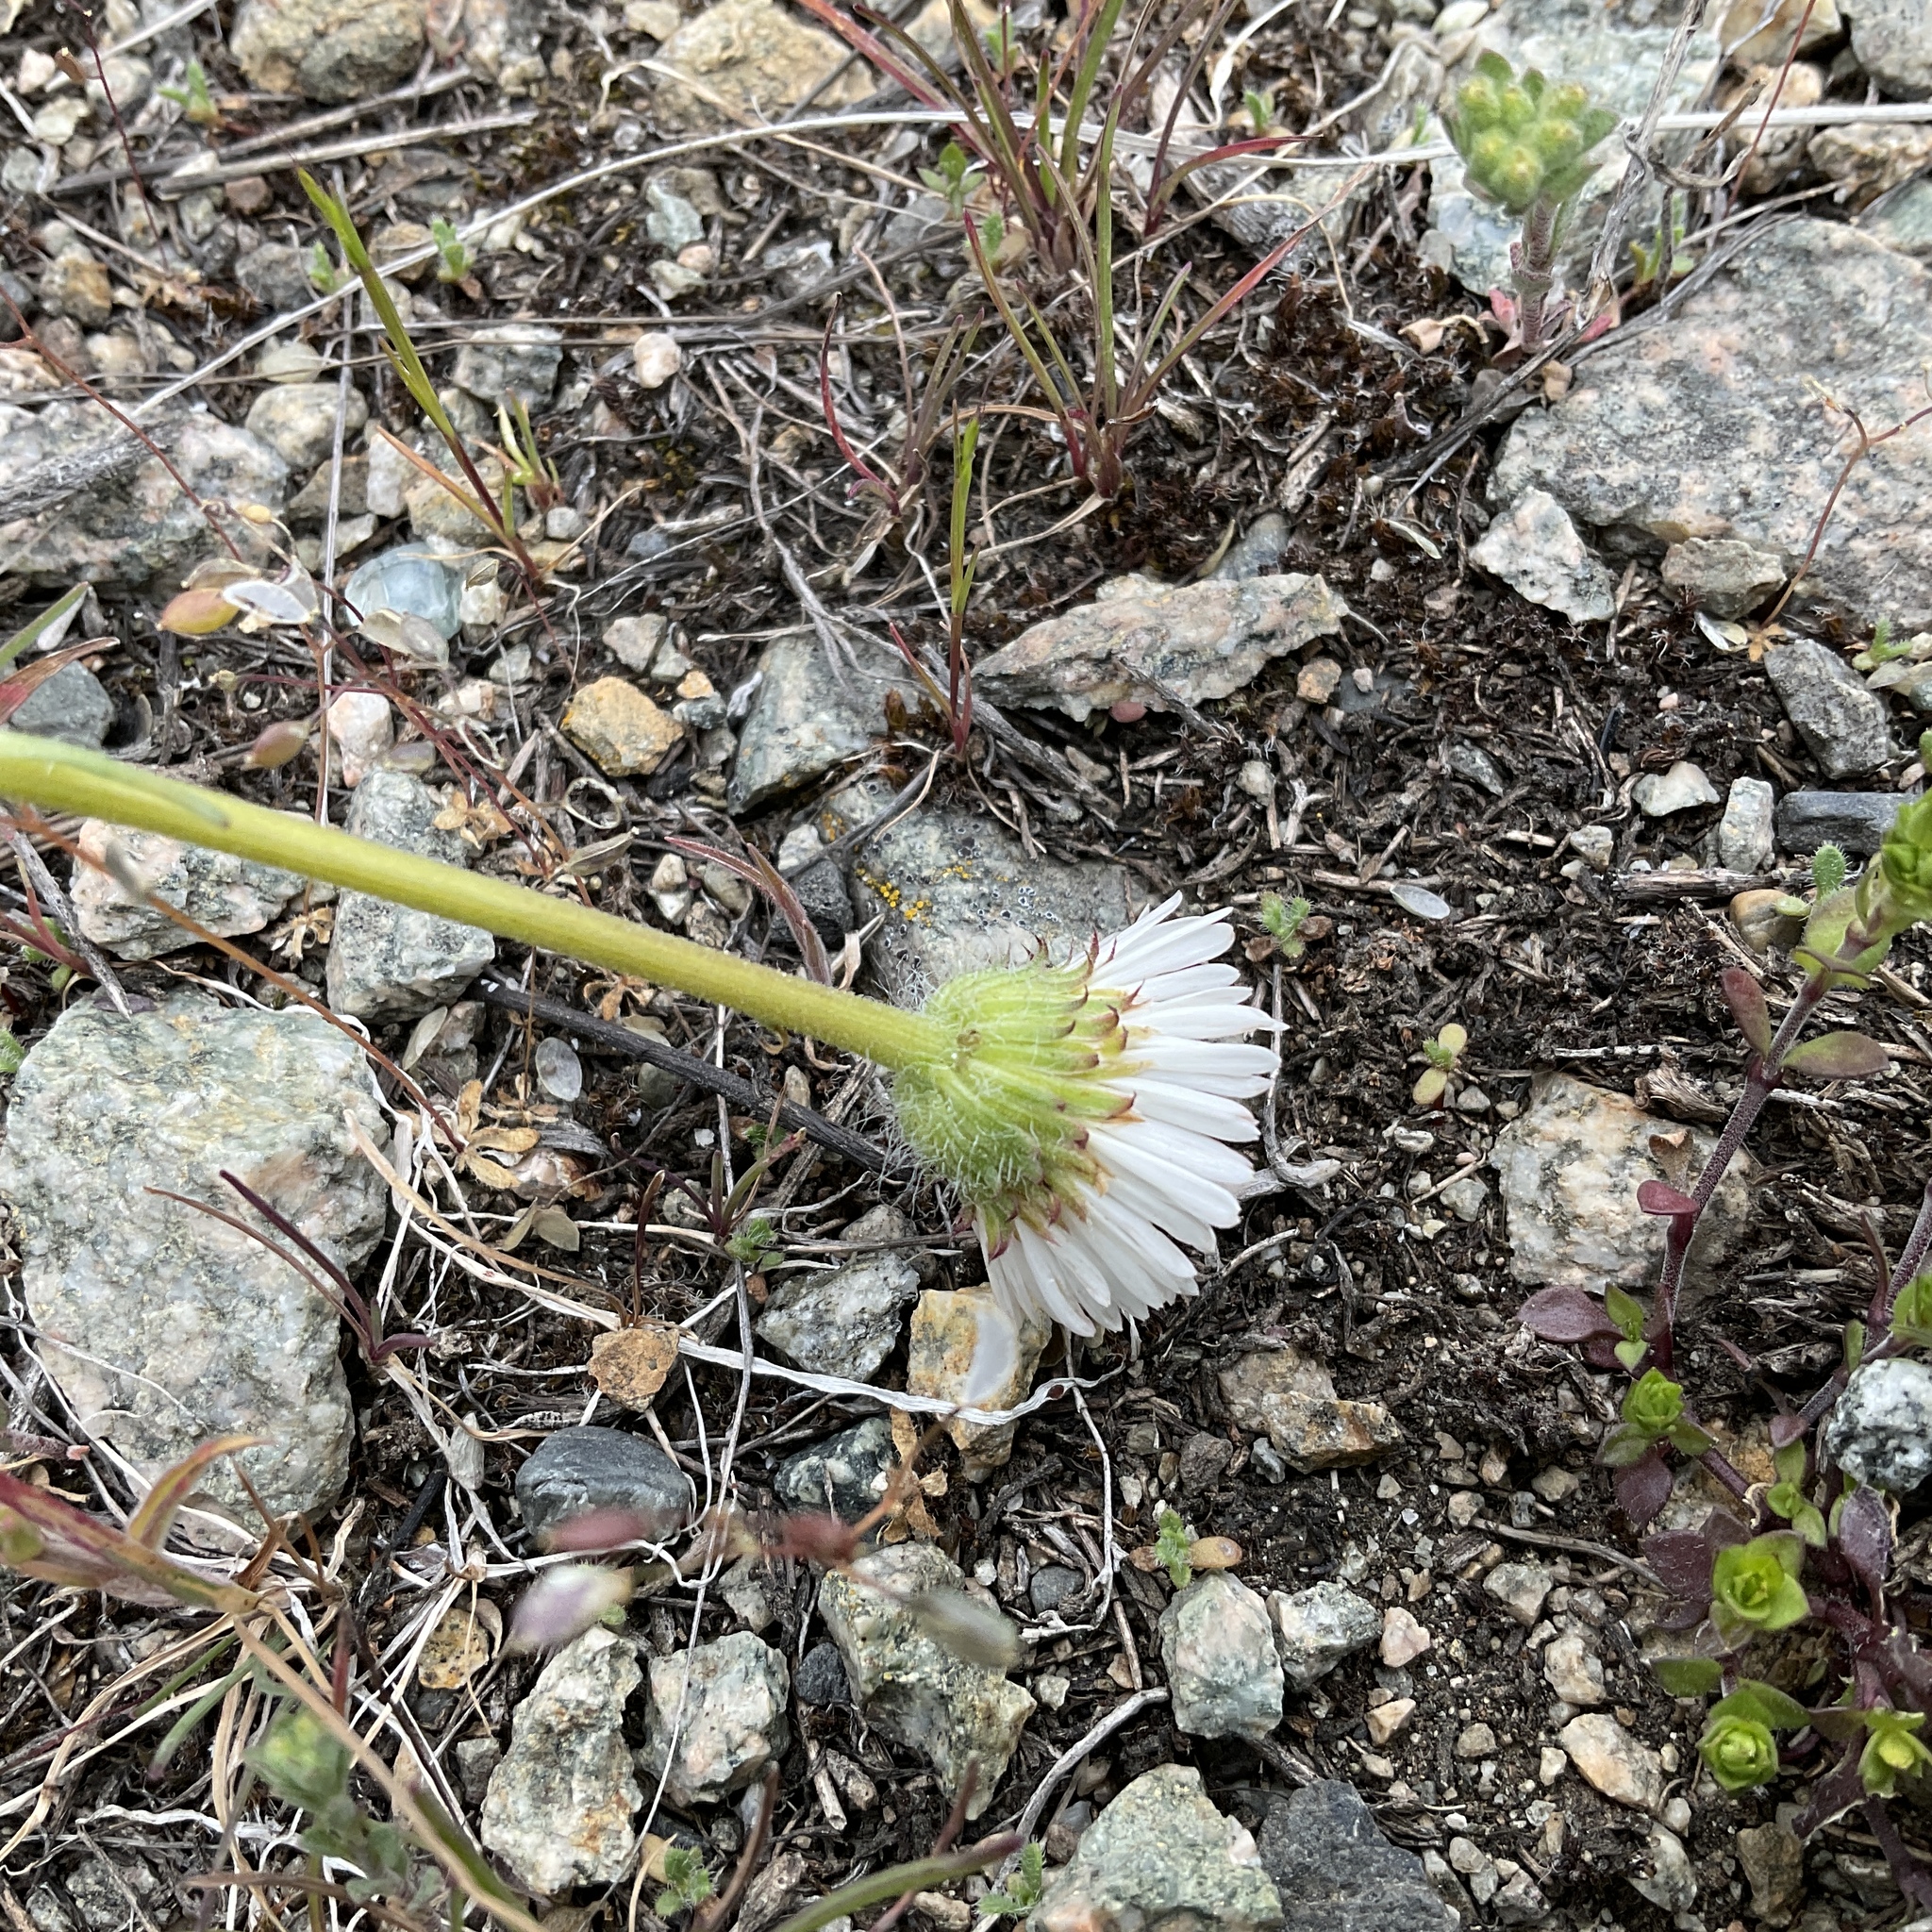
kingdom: Plantae
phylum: Tracheophyta
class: Magnoliopsida
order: Asterales
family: Asteraceae
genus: Erigeron
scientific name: Erigeron compositus
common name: Dwarf mountain fleabane
